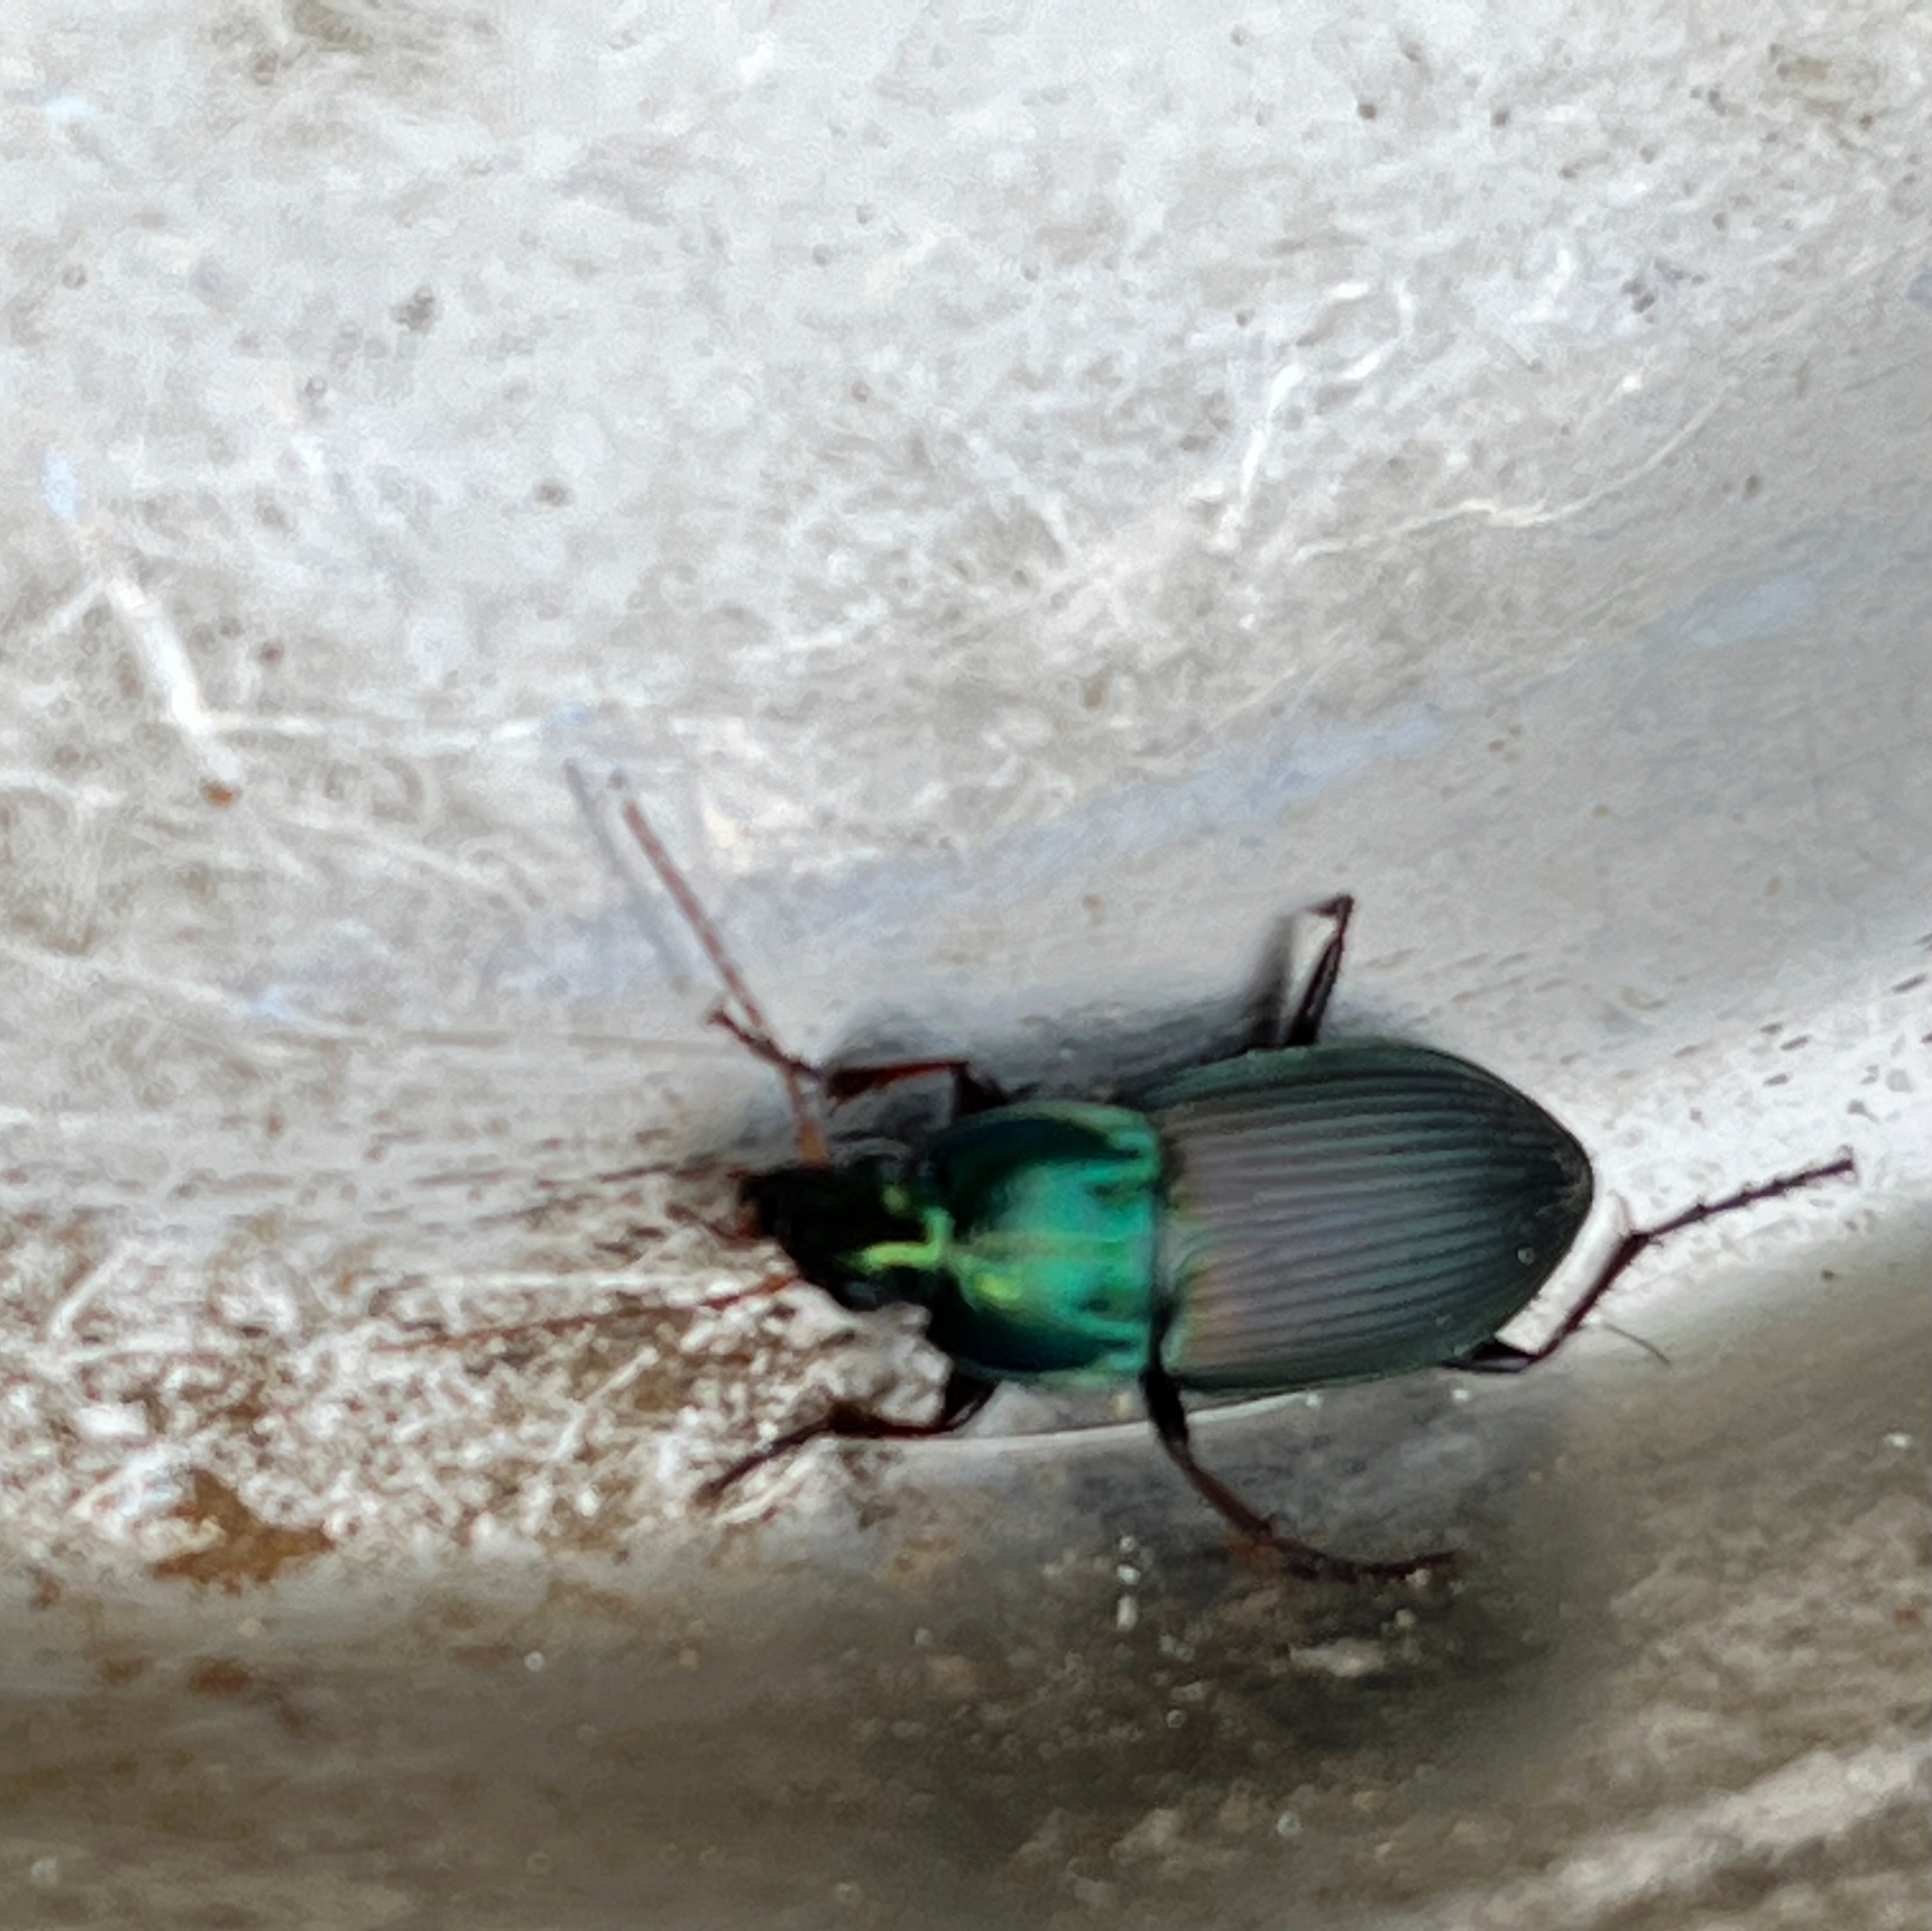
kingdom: Animalia
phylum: Arthropoda
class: Insecta
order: Coleoptera
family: Carabidae
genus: Poecilus
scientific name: Poecilus lucublandus
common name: Woodland ground beetle
